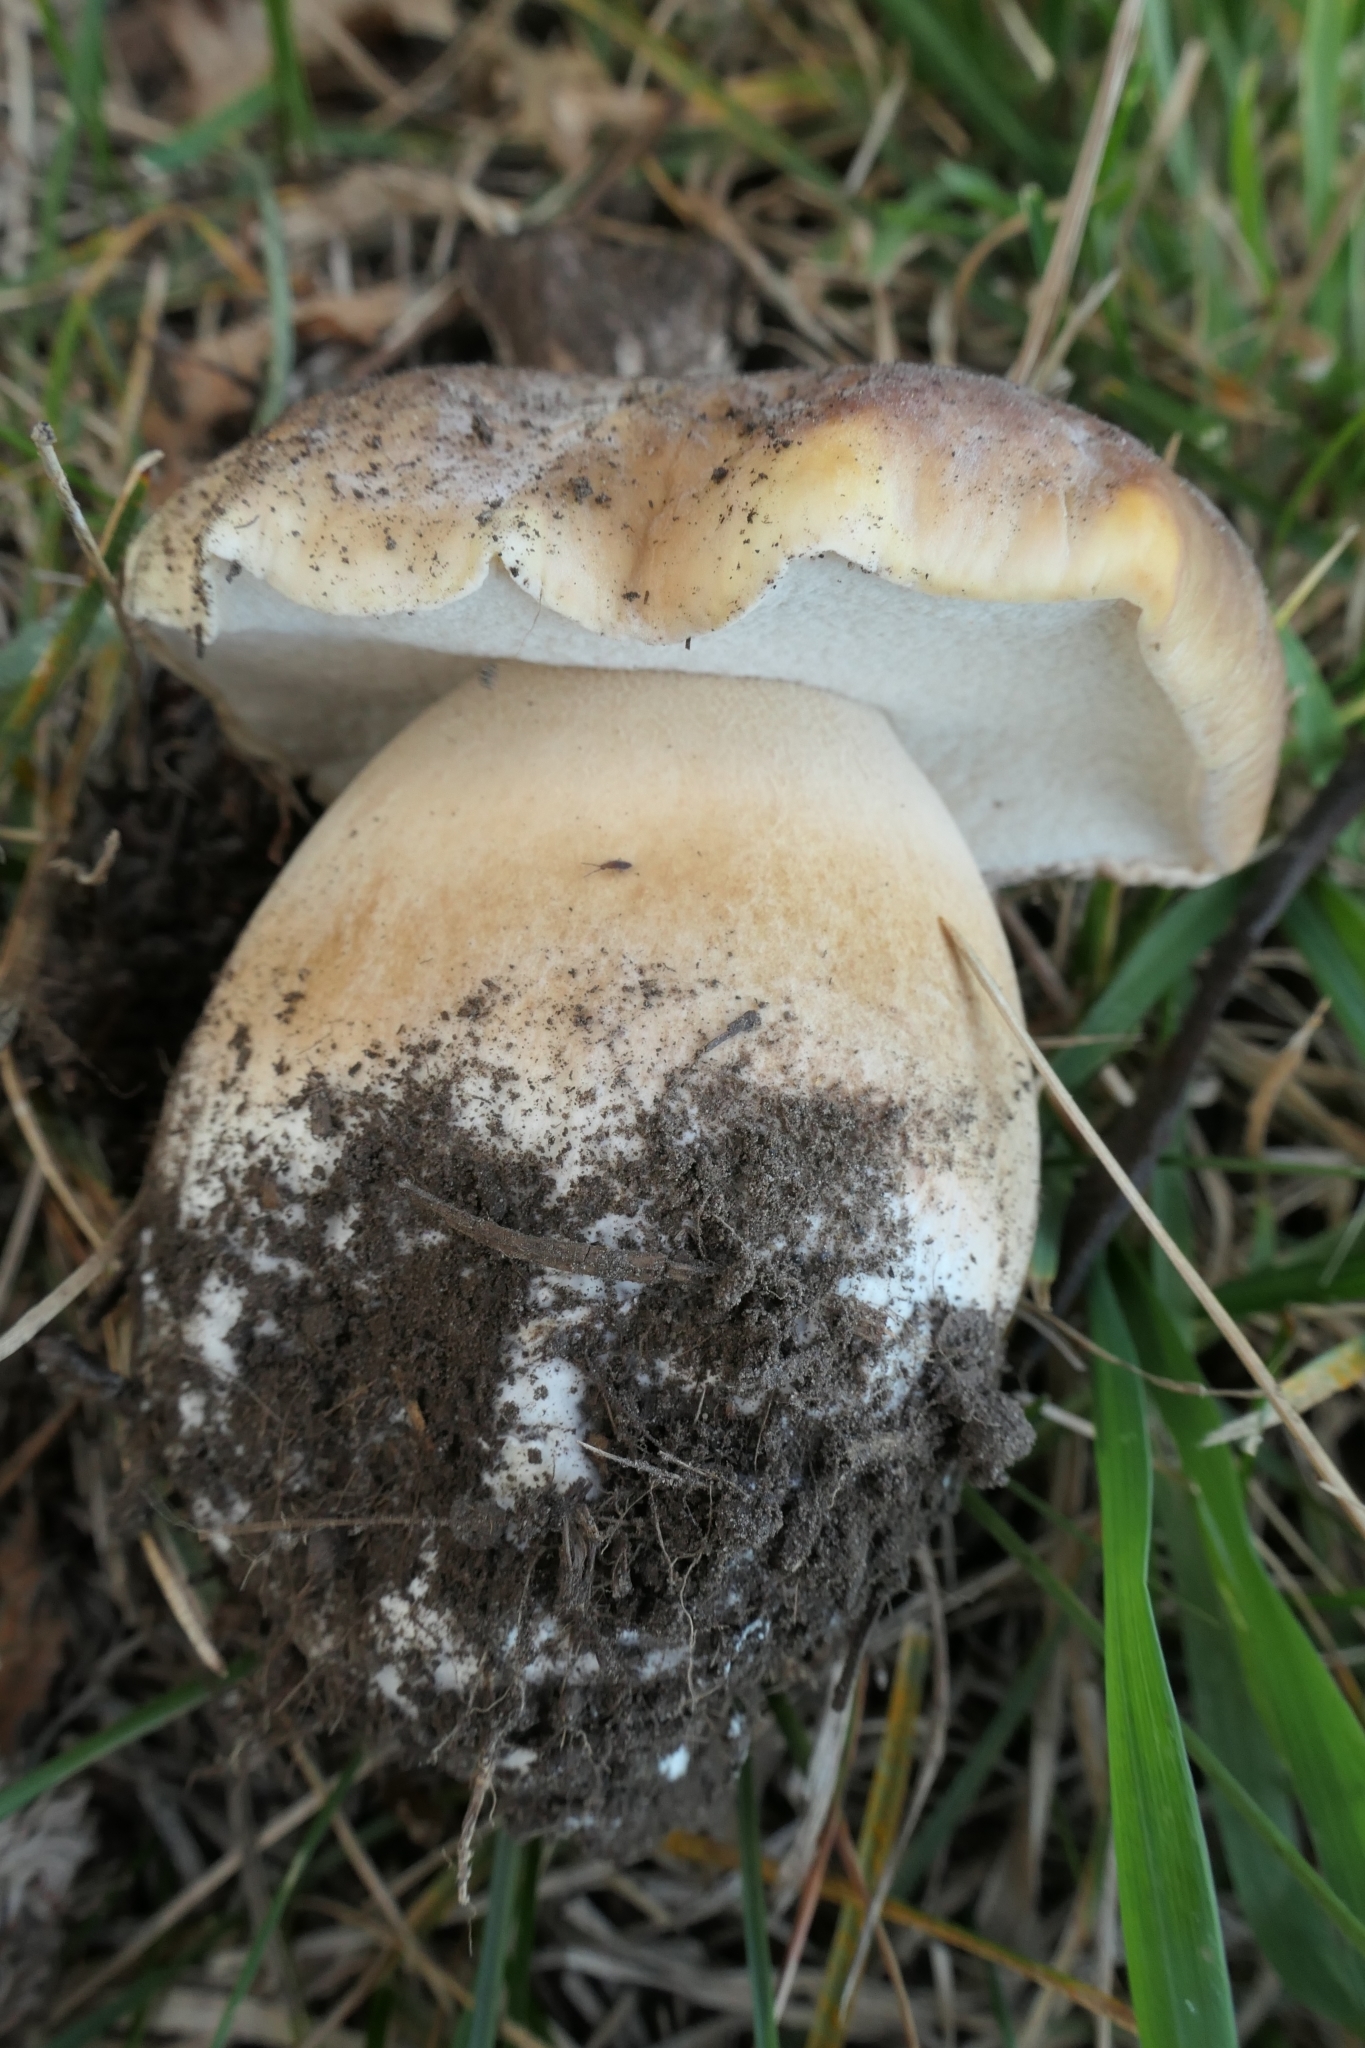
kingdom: Fungi
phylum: Basidiomycota
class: Agaricomycetes
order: Boletales
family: Boletaceae
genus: Boletus
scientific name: Boletus edulis
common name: Cep
